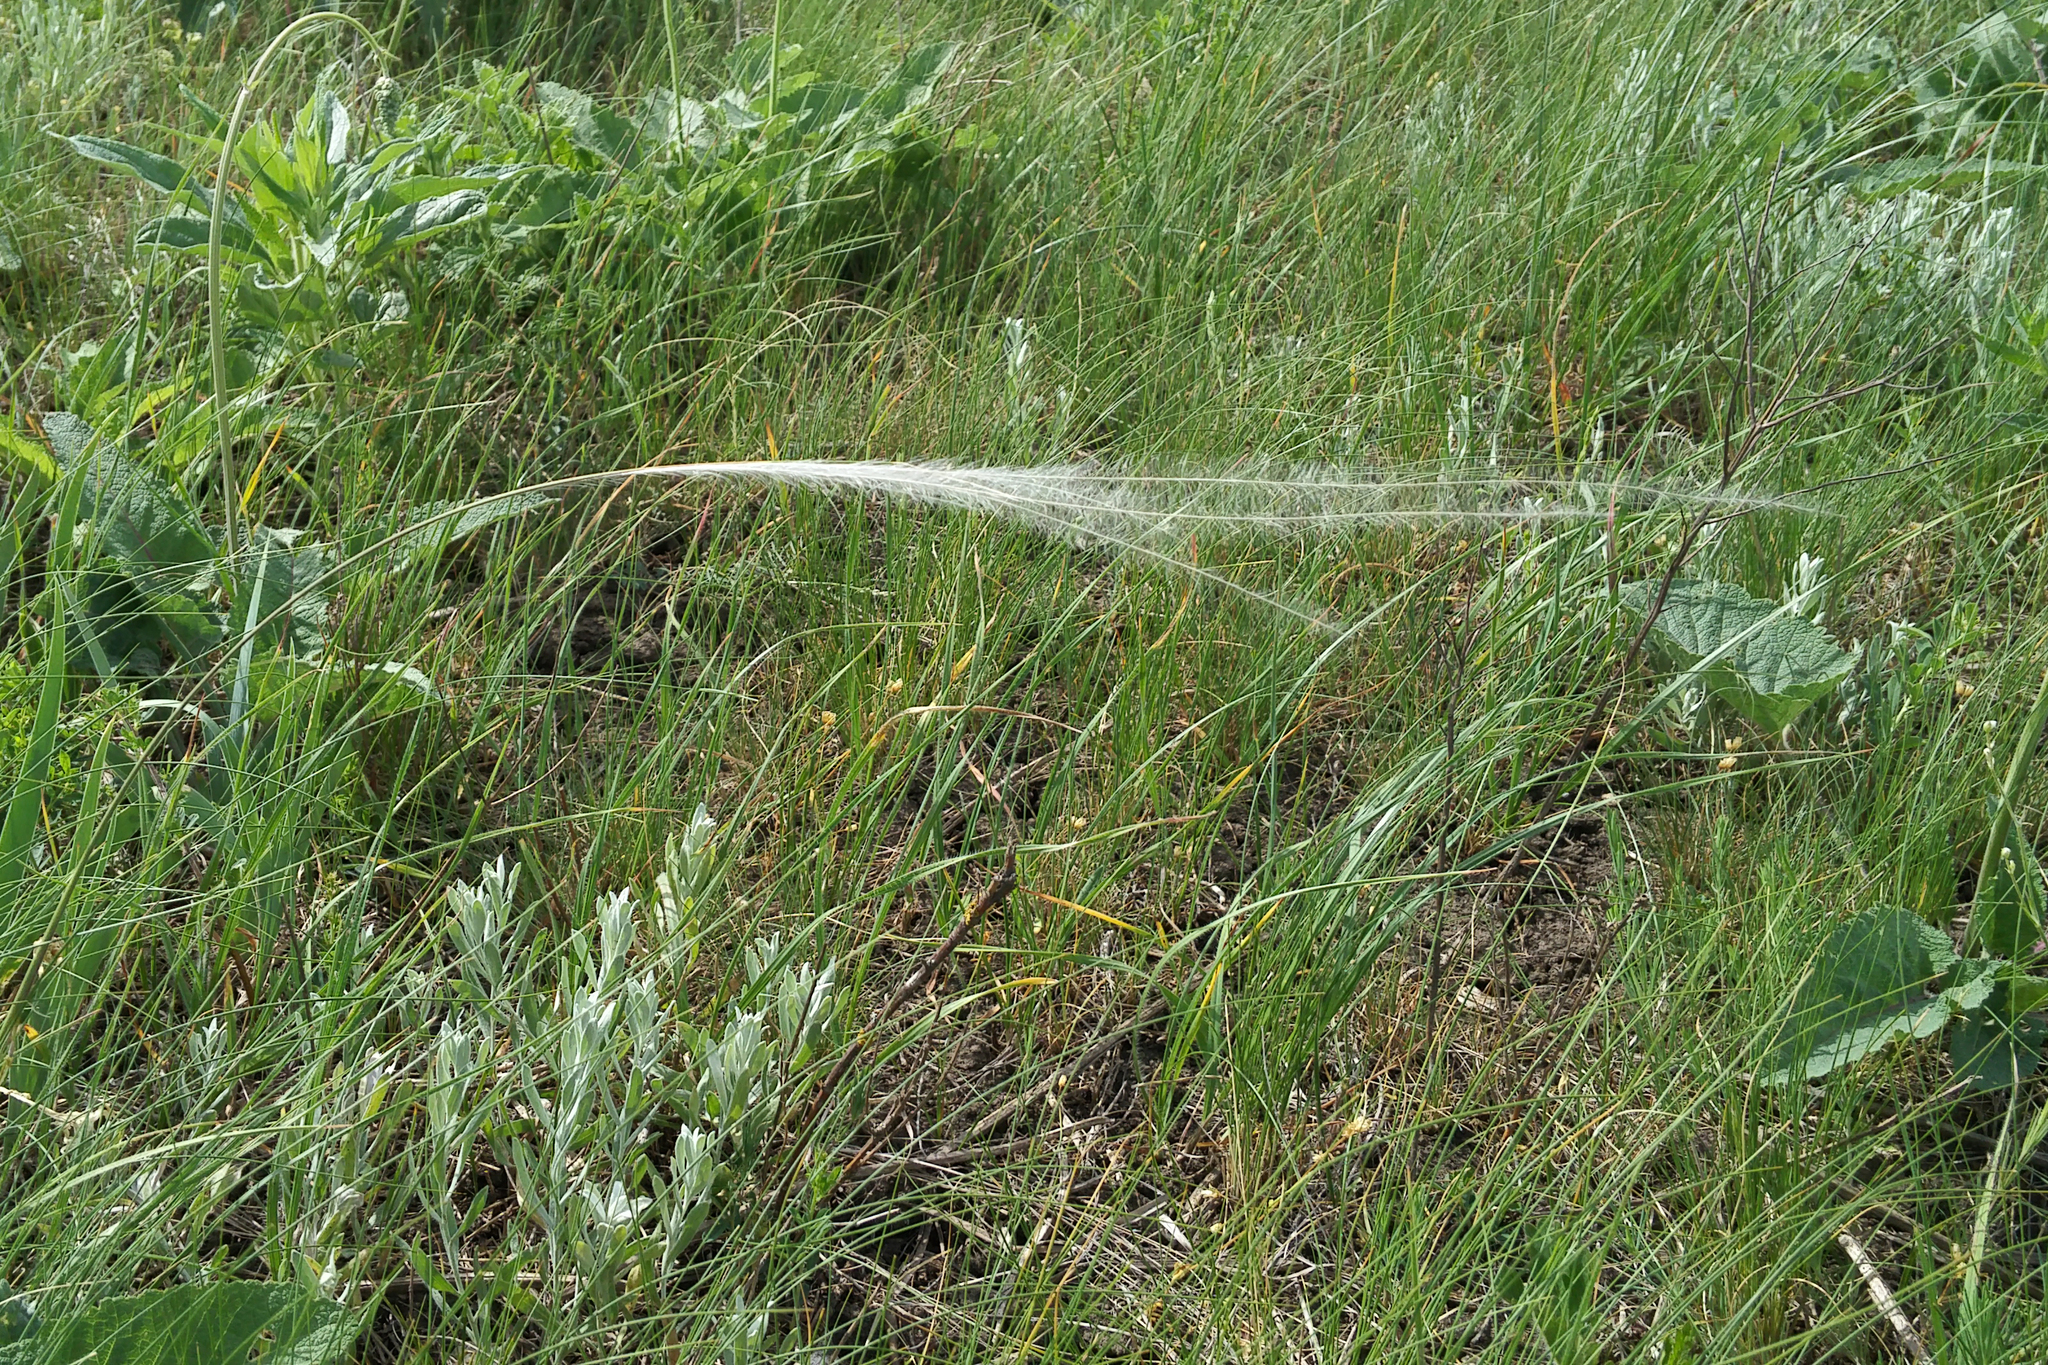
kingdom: Plantae
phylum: Tracheophyta
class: Liliopsida
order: Poales
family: Poaceae
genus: Stipa
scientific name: Stipa
